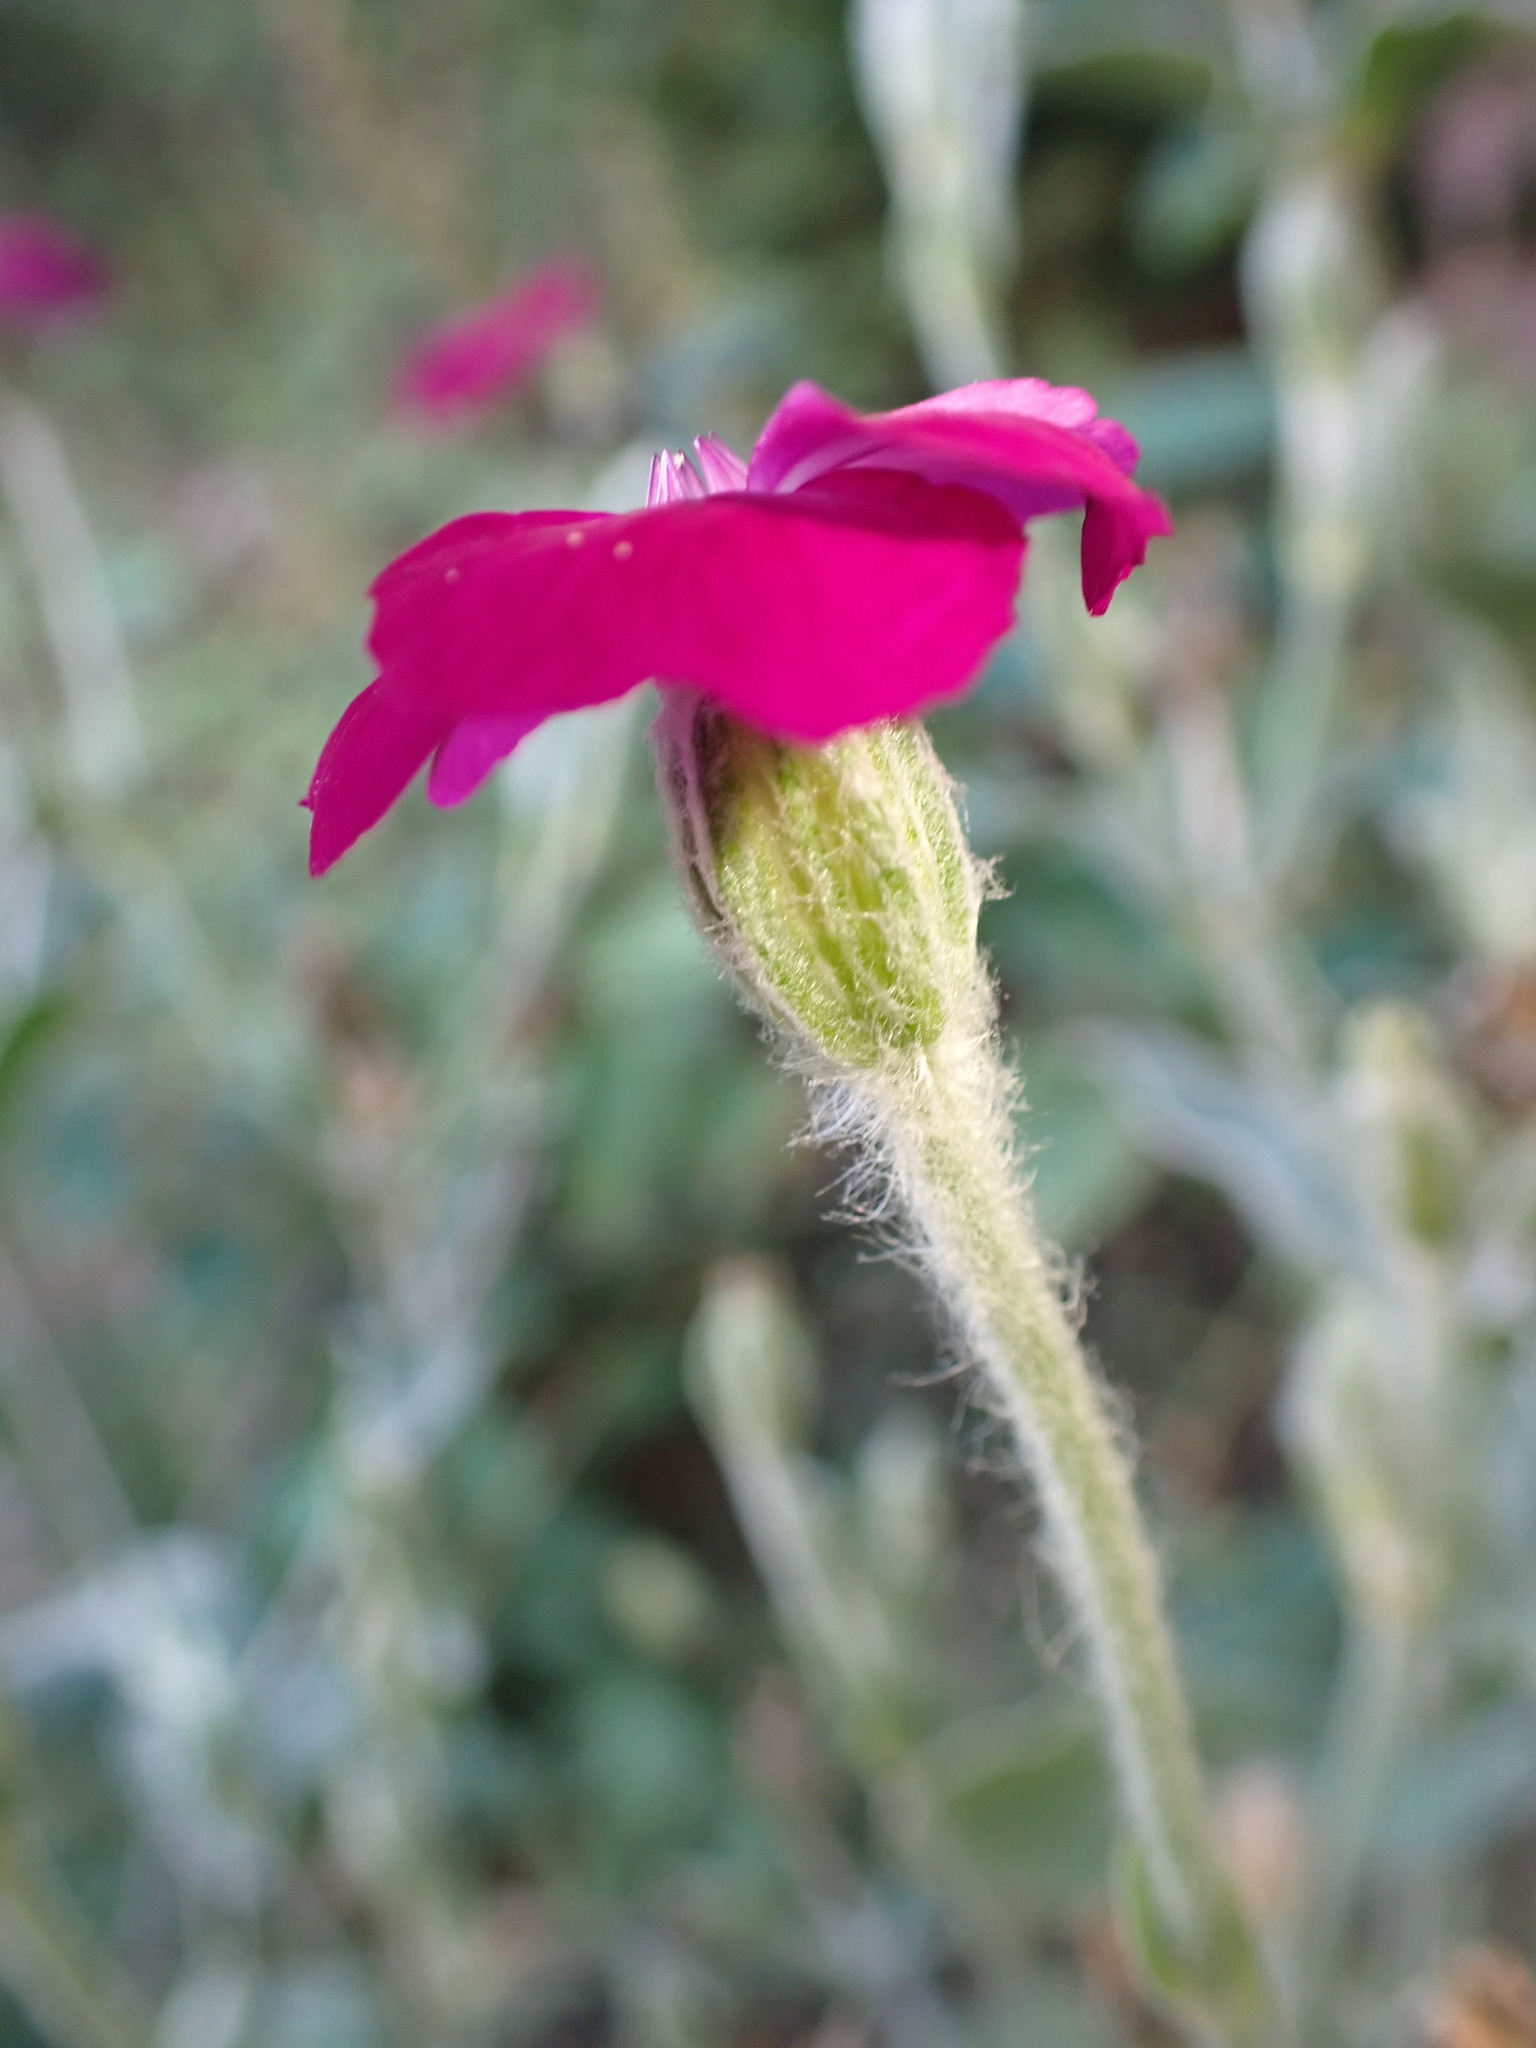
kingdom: Plantae
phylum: Tracheophyta
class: Magnoliopsida
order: Caryophyllales
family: Caryophyllaceae
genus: Silene
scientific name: Silene coronaria
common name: Rose campion
